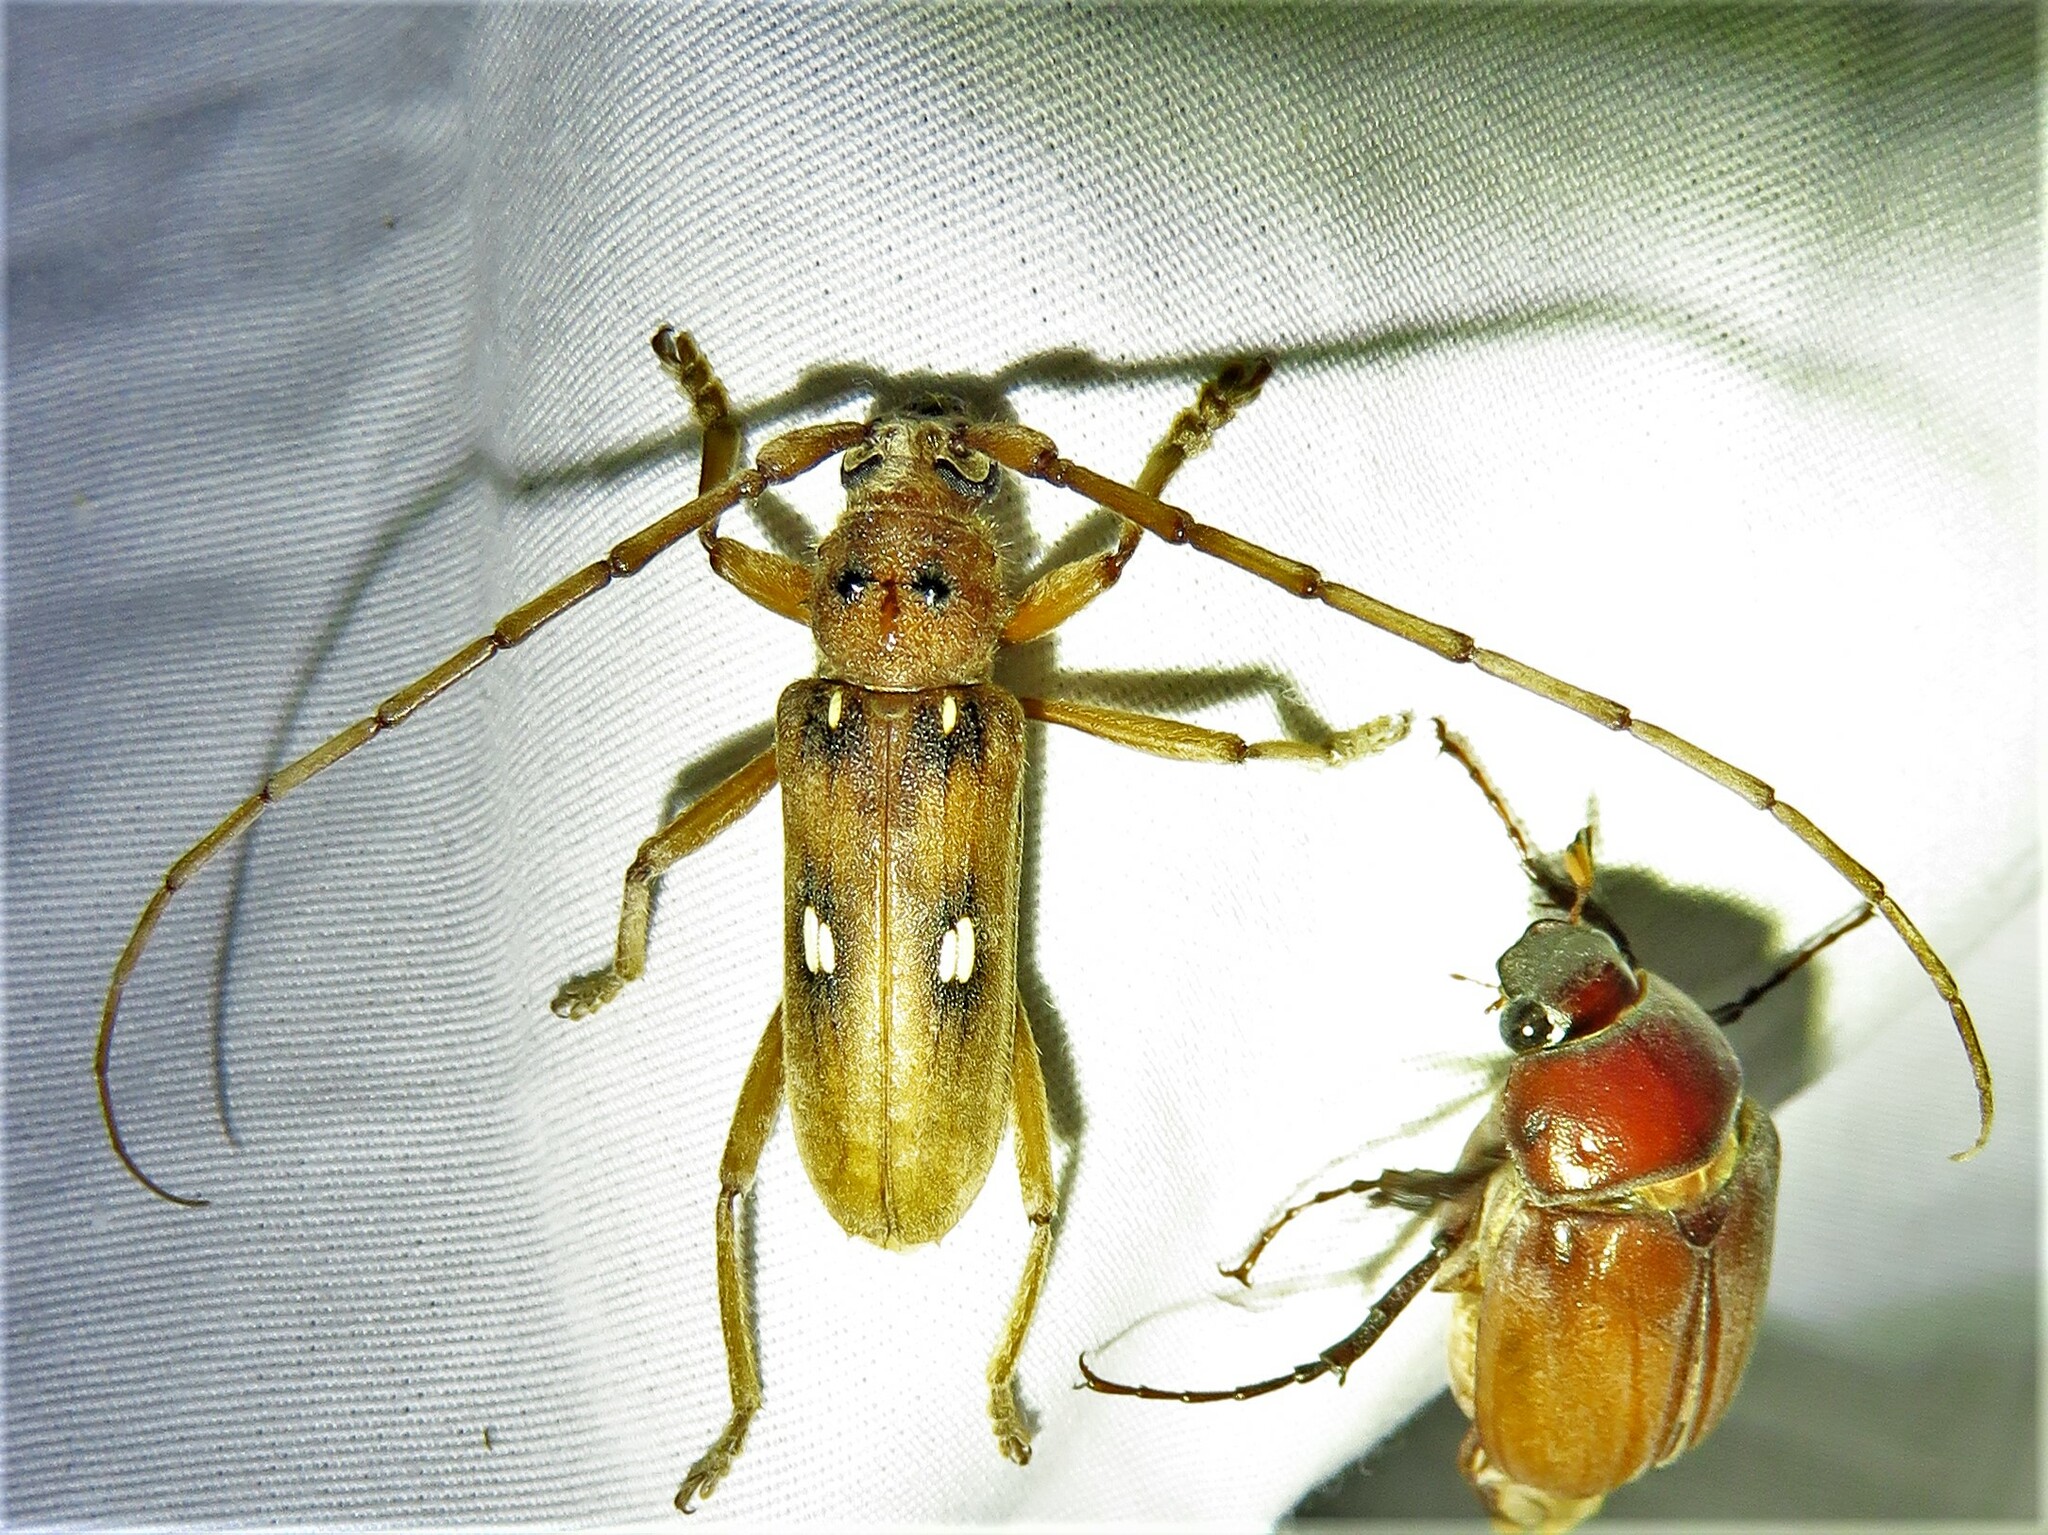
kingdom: Animalia
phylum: Arthropoda
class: Insecta
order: Coleoptera
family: Cerambycidae
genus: Eburia
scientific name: Eburia haldemani
